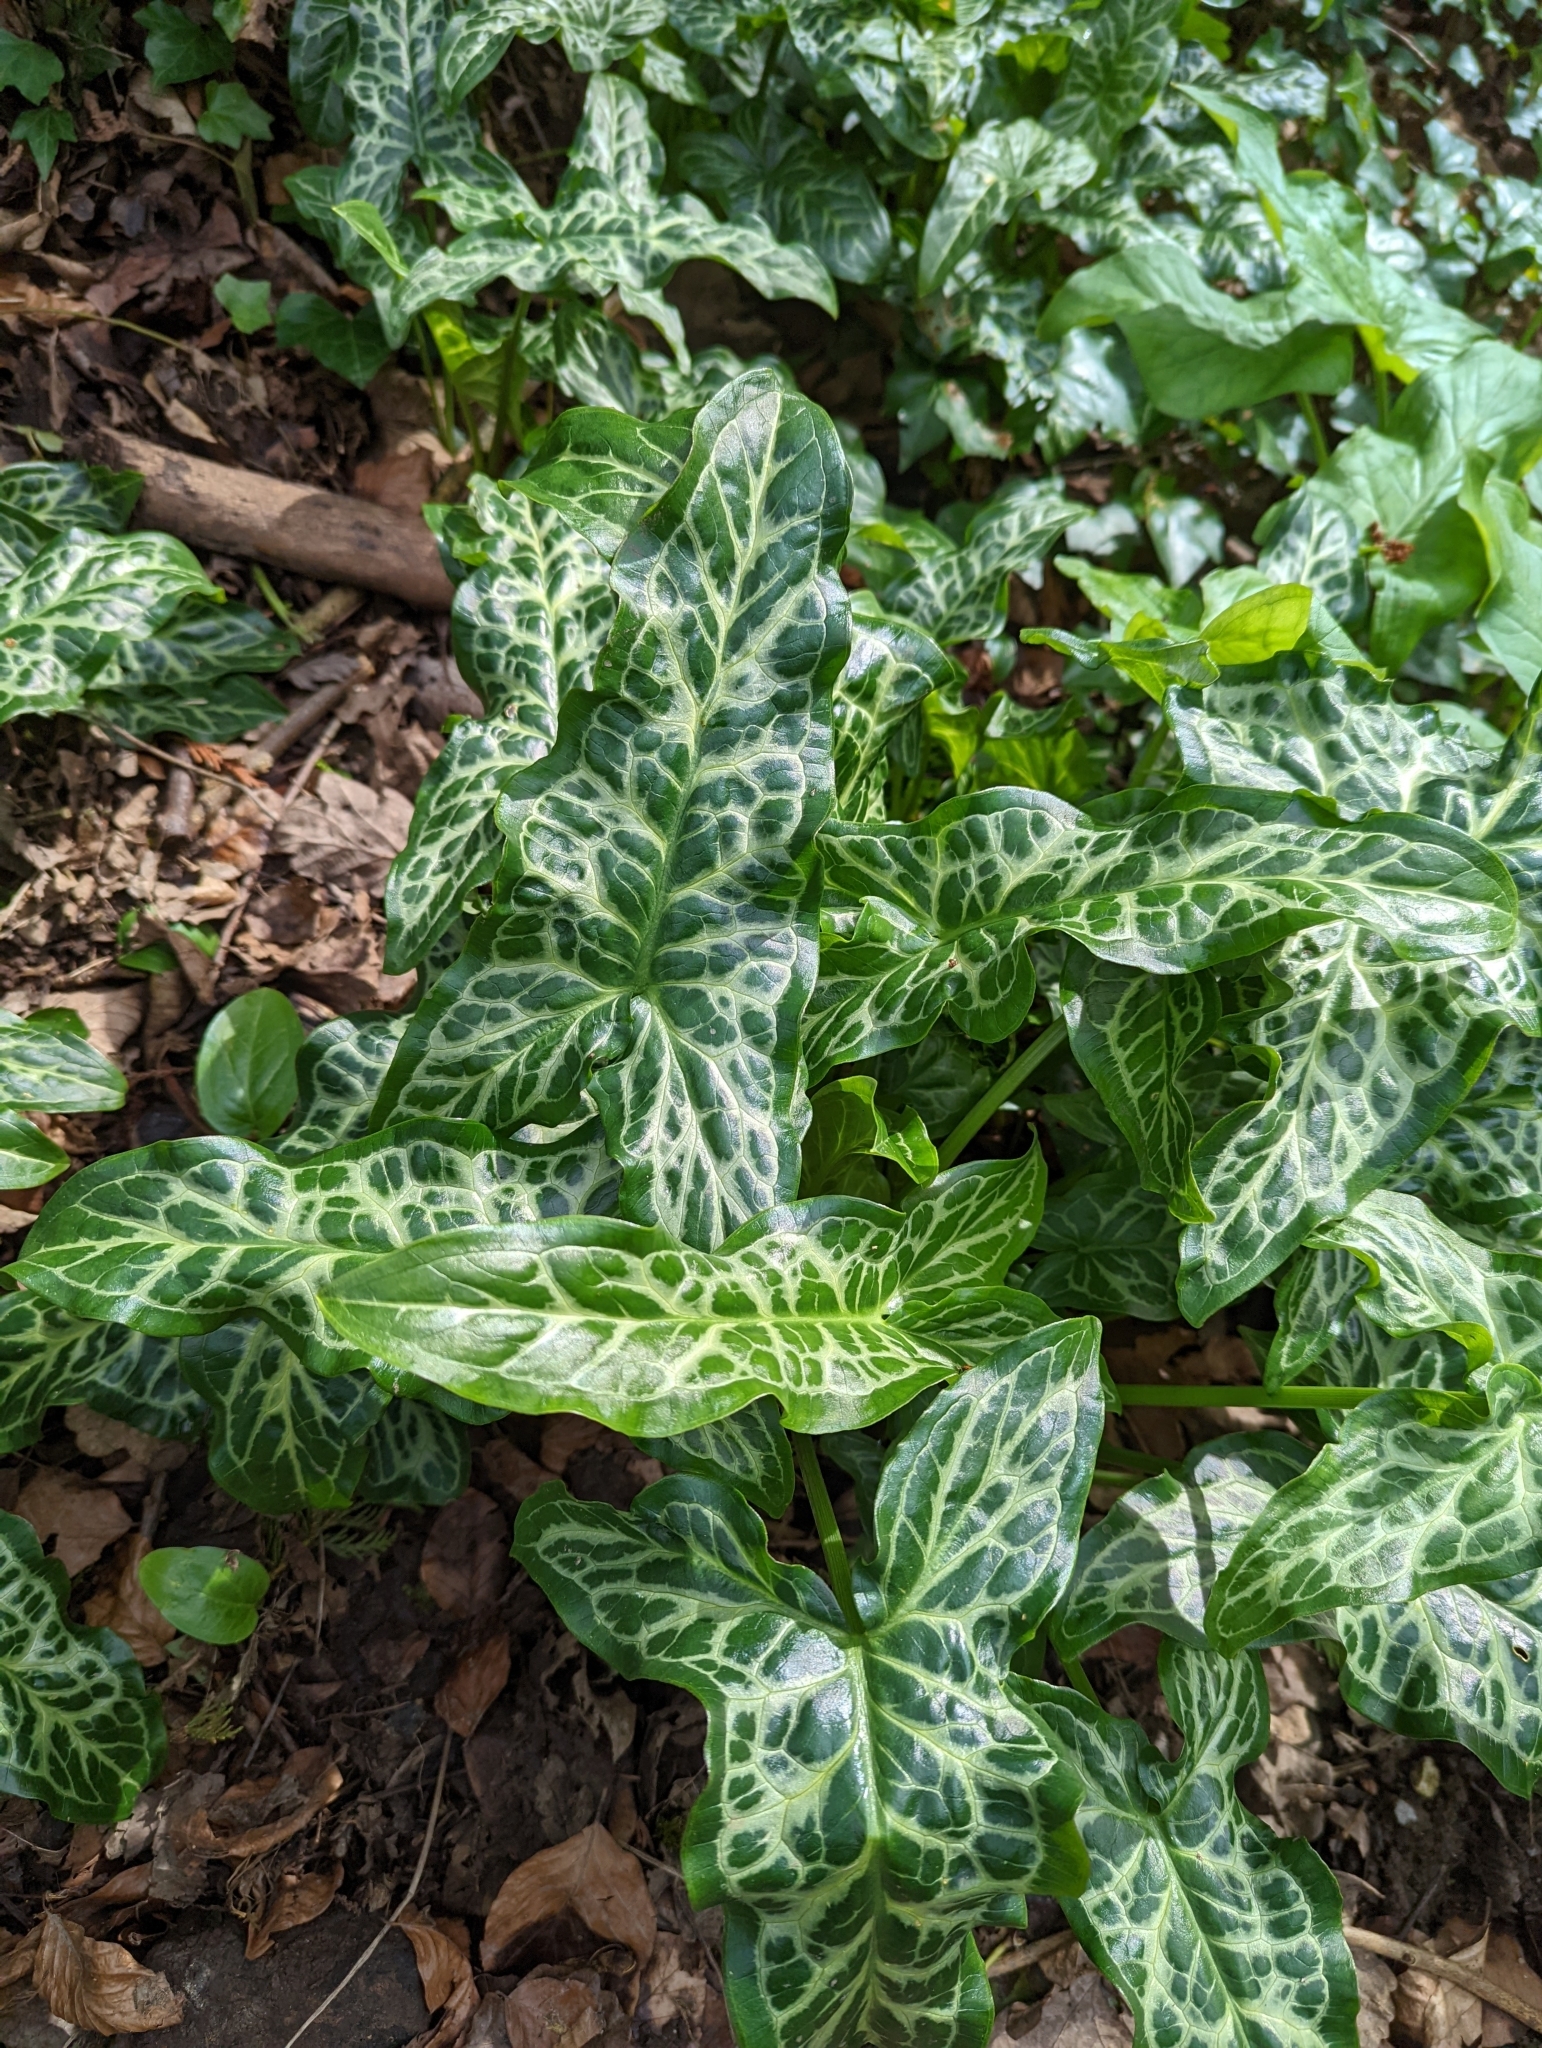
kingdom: Plantae
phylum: Tracheophyta
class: Liliopsida
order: Alismatales
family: Araceae
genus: Arum
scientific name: Arum italicum
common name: Italian lords-and-ladies
